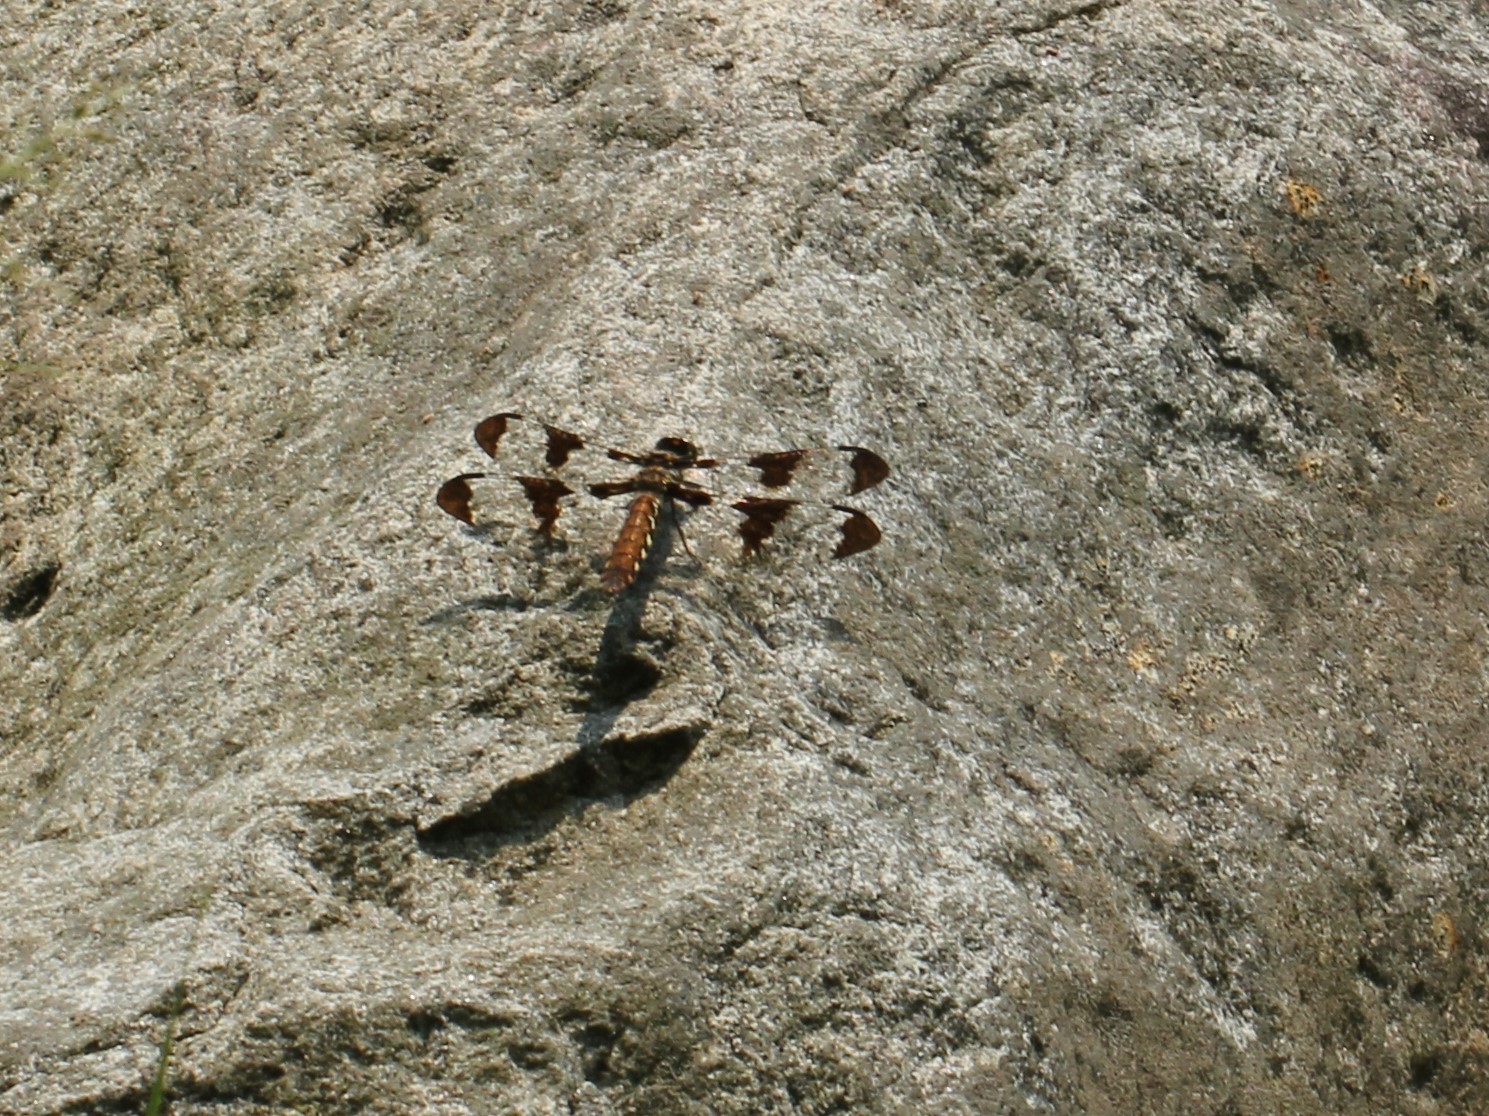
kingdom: Animalia
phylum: Arthropoda
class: Insecta
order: Odonata
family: Libellulidae
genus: Plathemis
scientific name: Plathemis lydia
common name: Common whitetail
